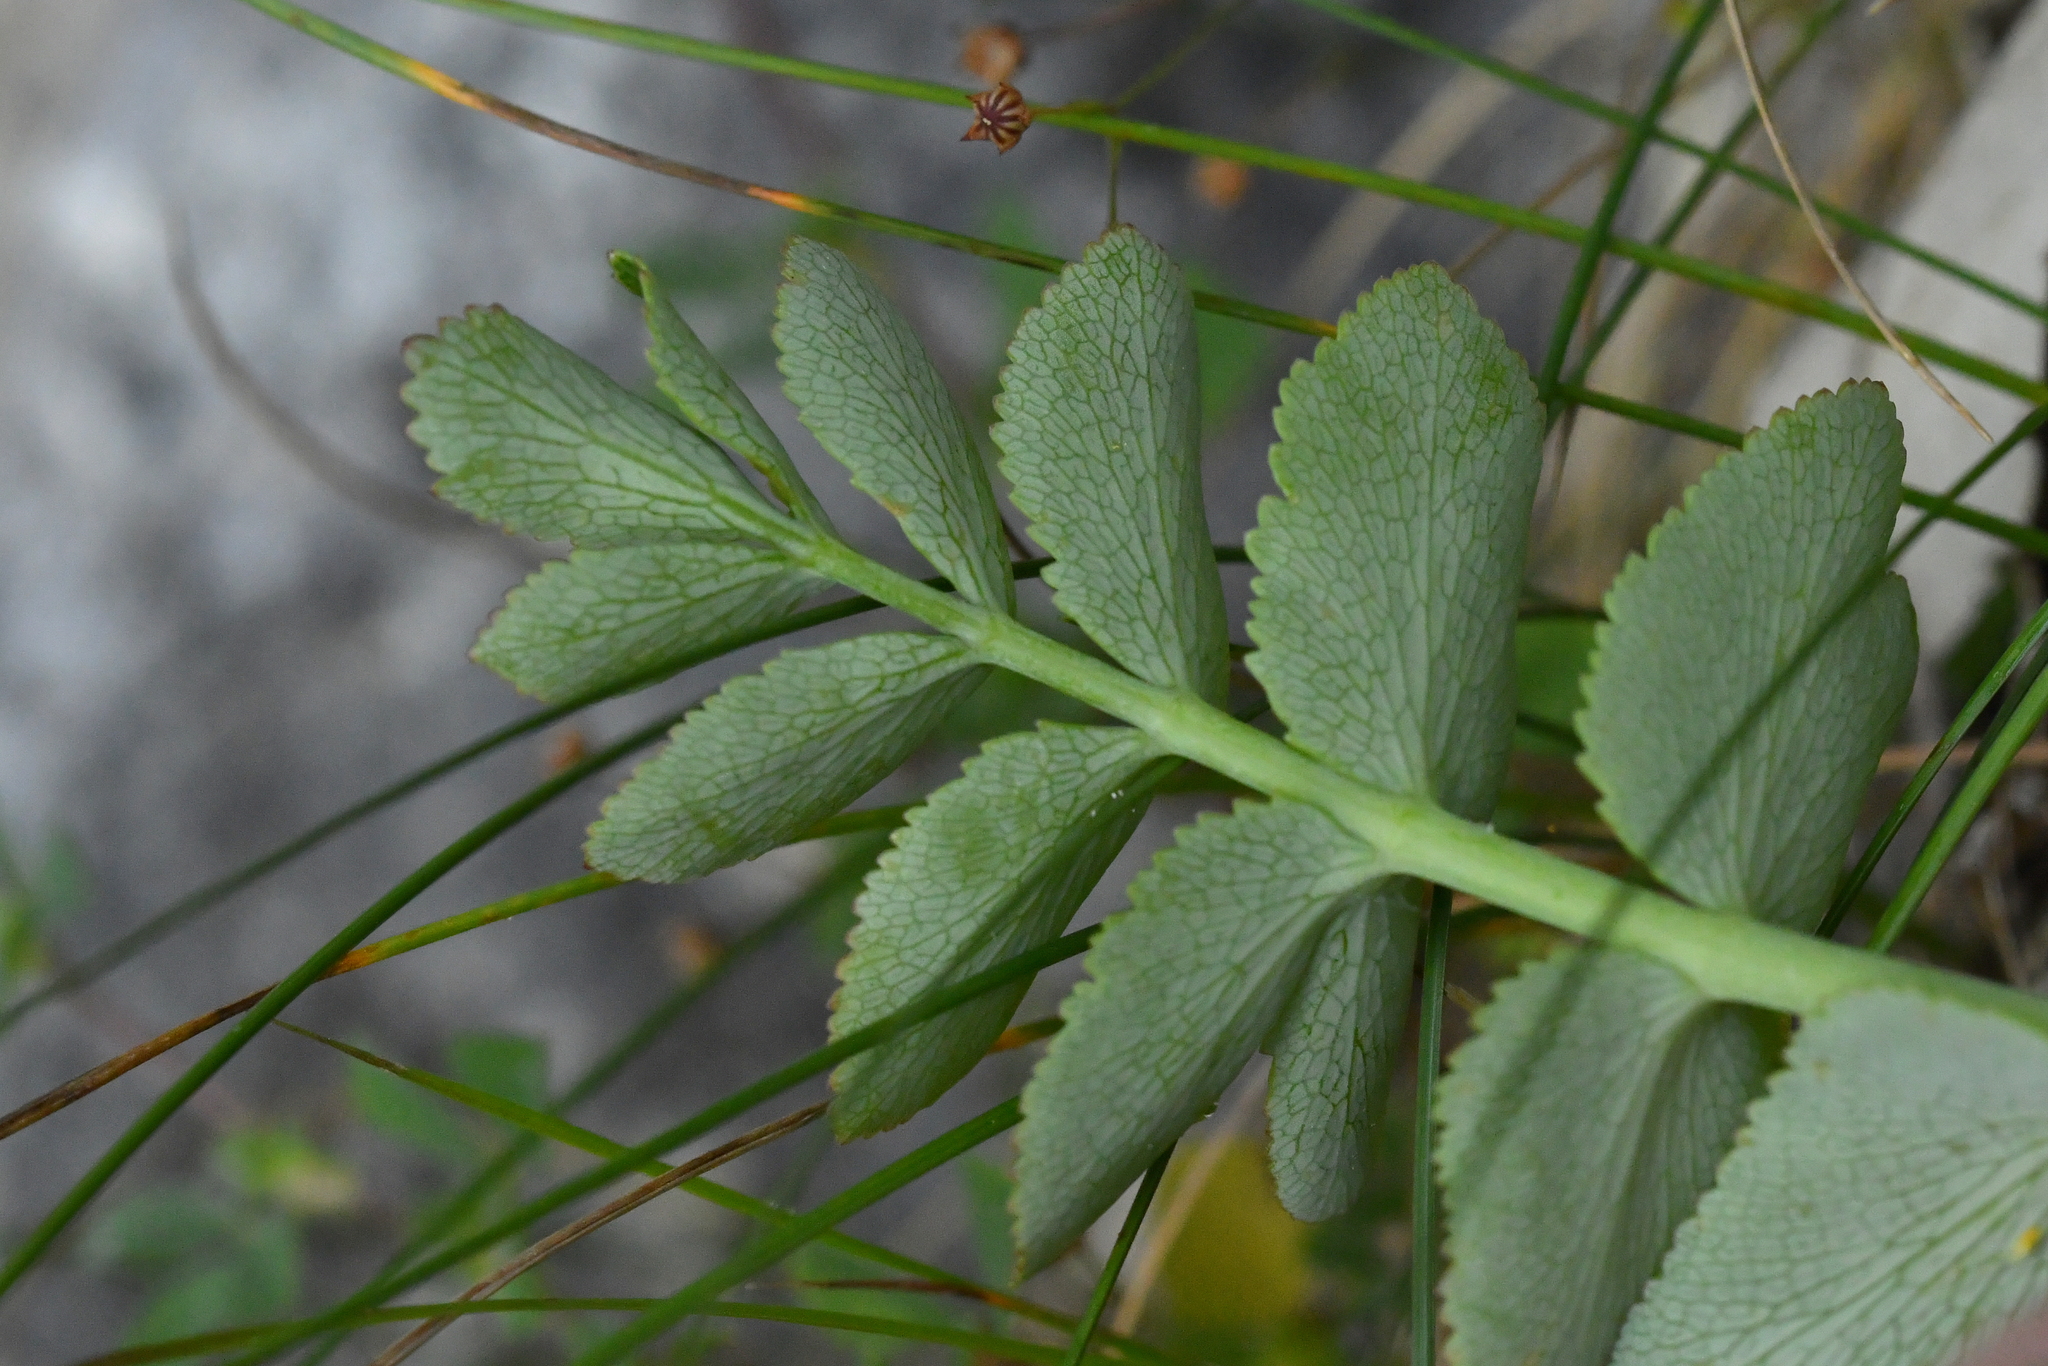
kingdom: Plantae
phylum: Tracheophyta
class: Magnoliopsida
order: Apiales
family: Apiaceae
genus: Gingidia
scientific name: Gingidia montana
